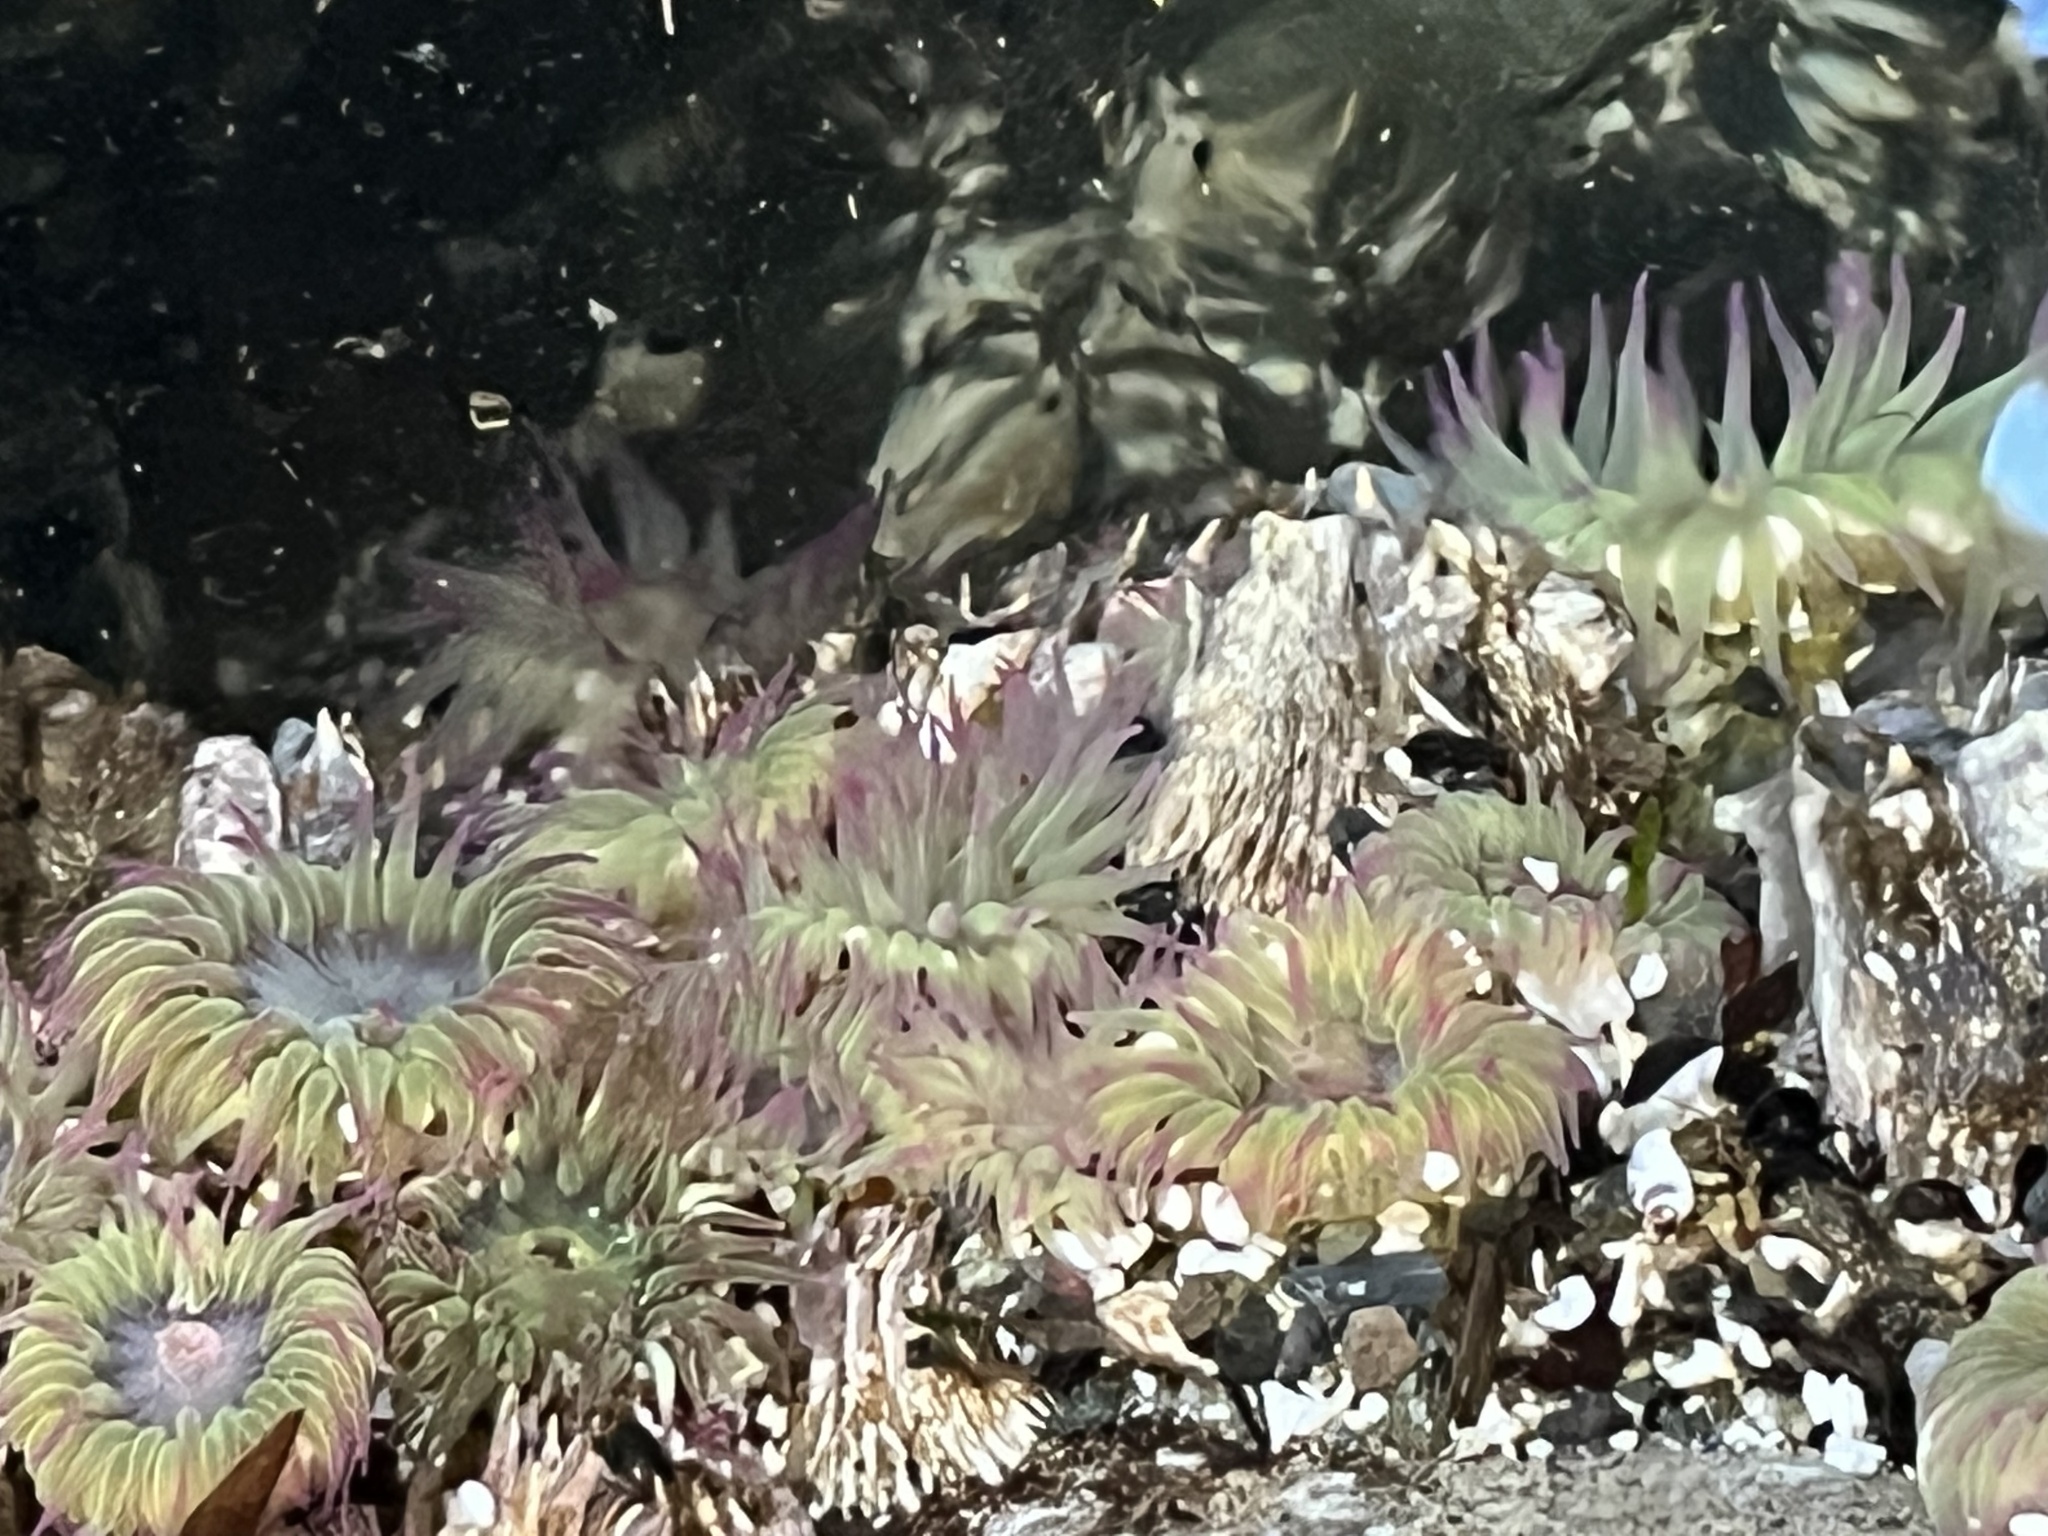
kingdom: Animalia
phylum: Cnidaria
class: Anthozoa
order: Actiniaria
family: Actiniidae
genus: Anthopleura
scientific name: Anthopleura elegantissima
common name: Clonal anemone
